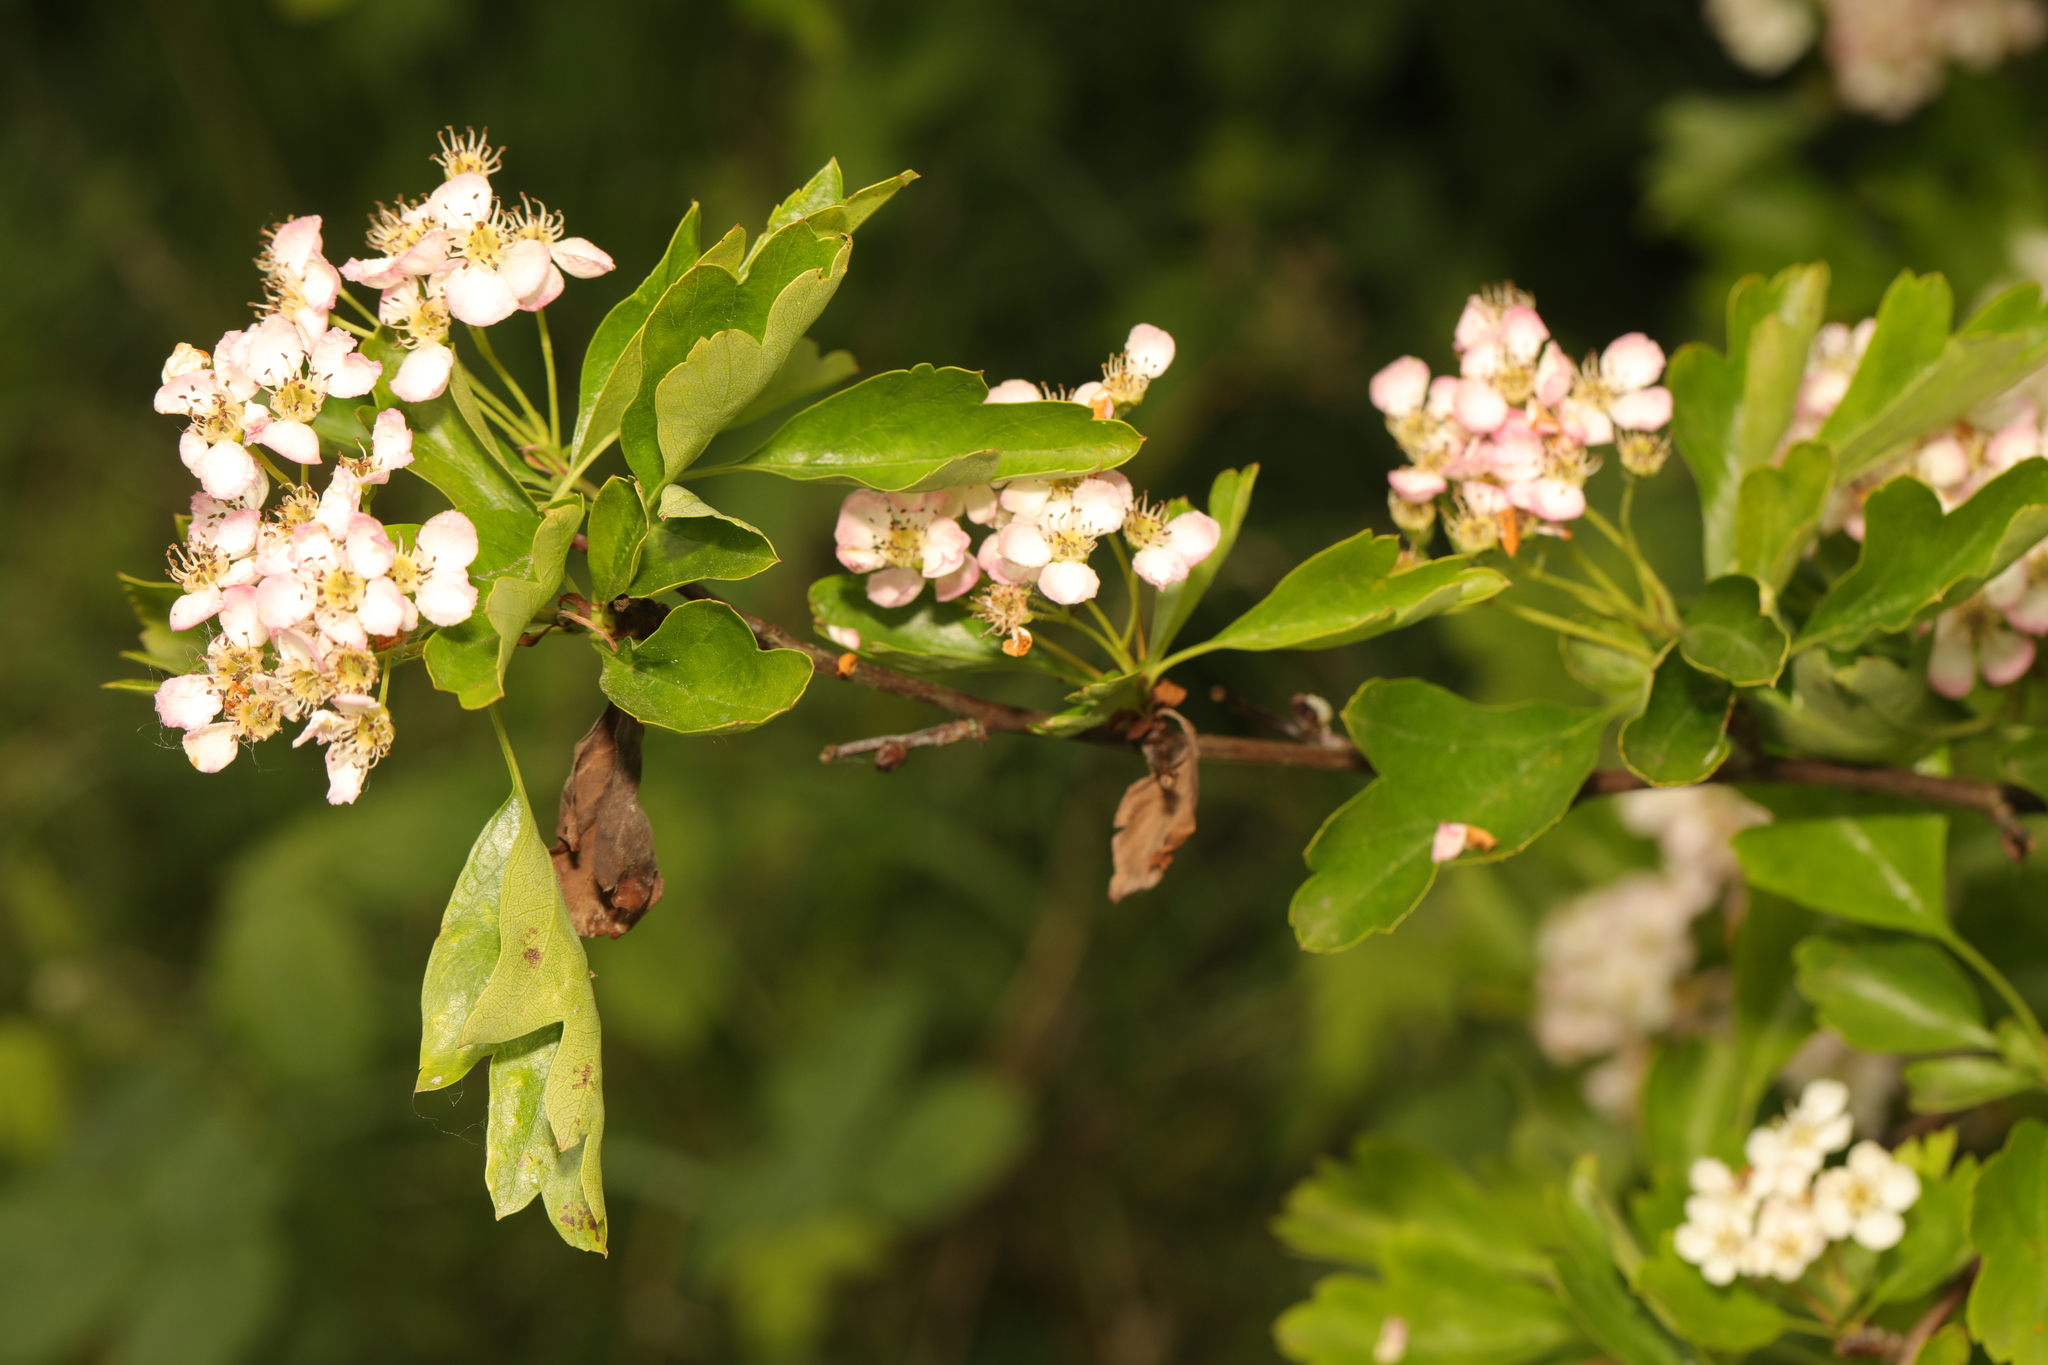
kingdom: Plantae
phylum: Tracheophyta
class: Magnoliopsida
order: Rosales
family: Rosaceae
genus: Crataegus
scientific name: Crataegus monogyna
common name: Hawthorn
